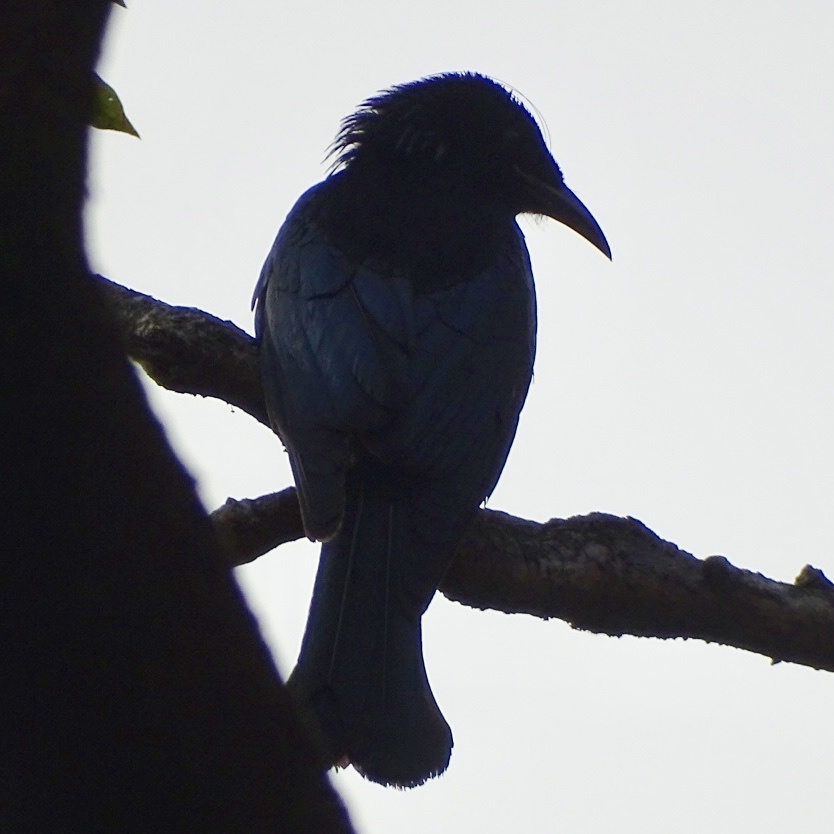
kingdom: Animalia
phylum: Chordata
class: Aves
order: Passeriformes
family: Dicruridae
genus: Dicrurus
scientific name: Dicrurus hottentottus
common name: Hair-crested drongo
